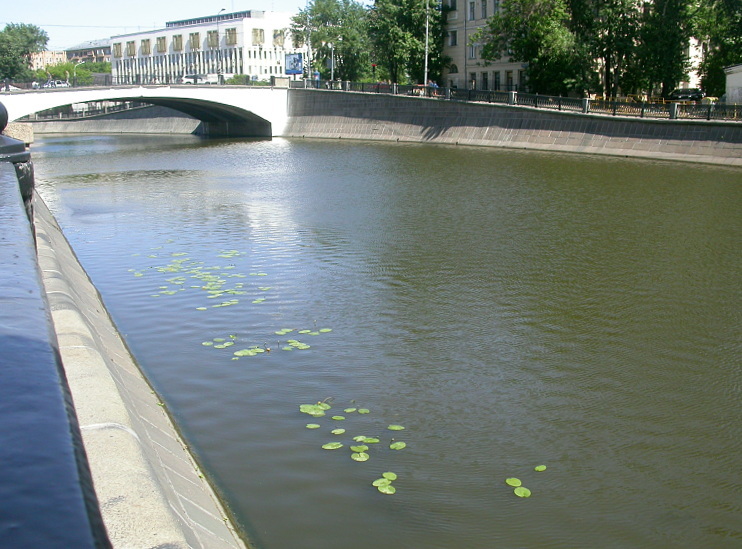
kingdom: Plantae
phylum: Tracheophyta
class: Magnoliopsida
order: Nymphaeales
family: Nymphaeaceae
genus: Nuphar
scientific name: Nuphar lutea
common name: Yellow water-lily
